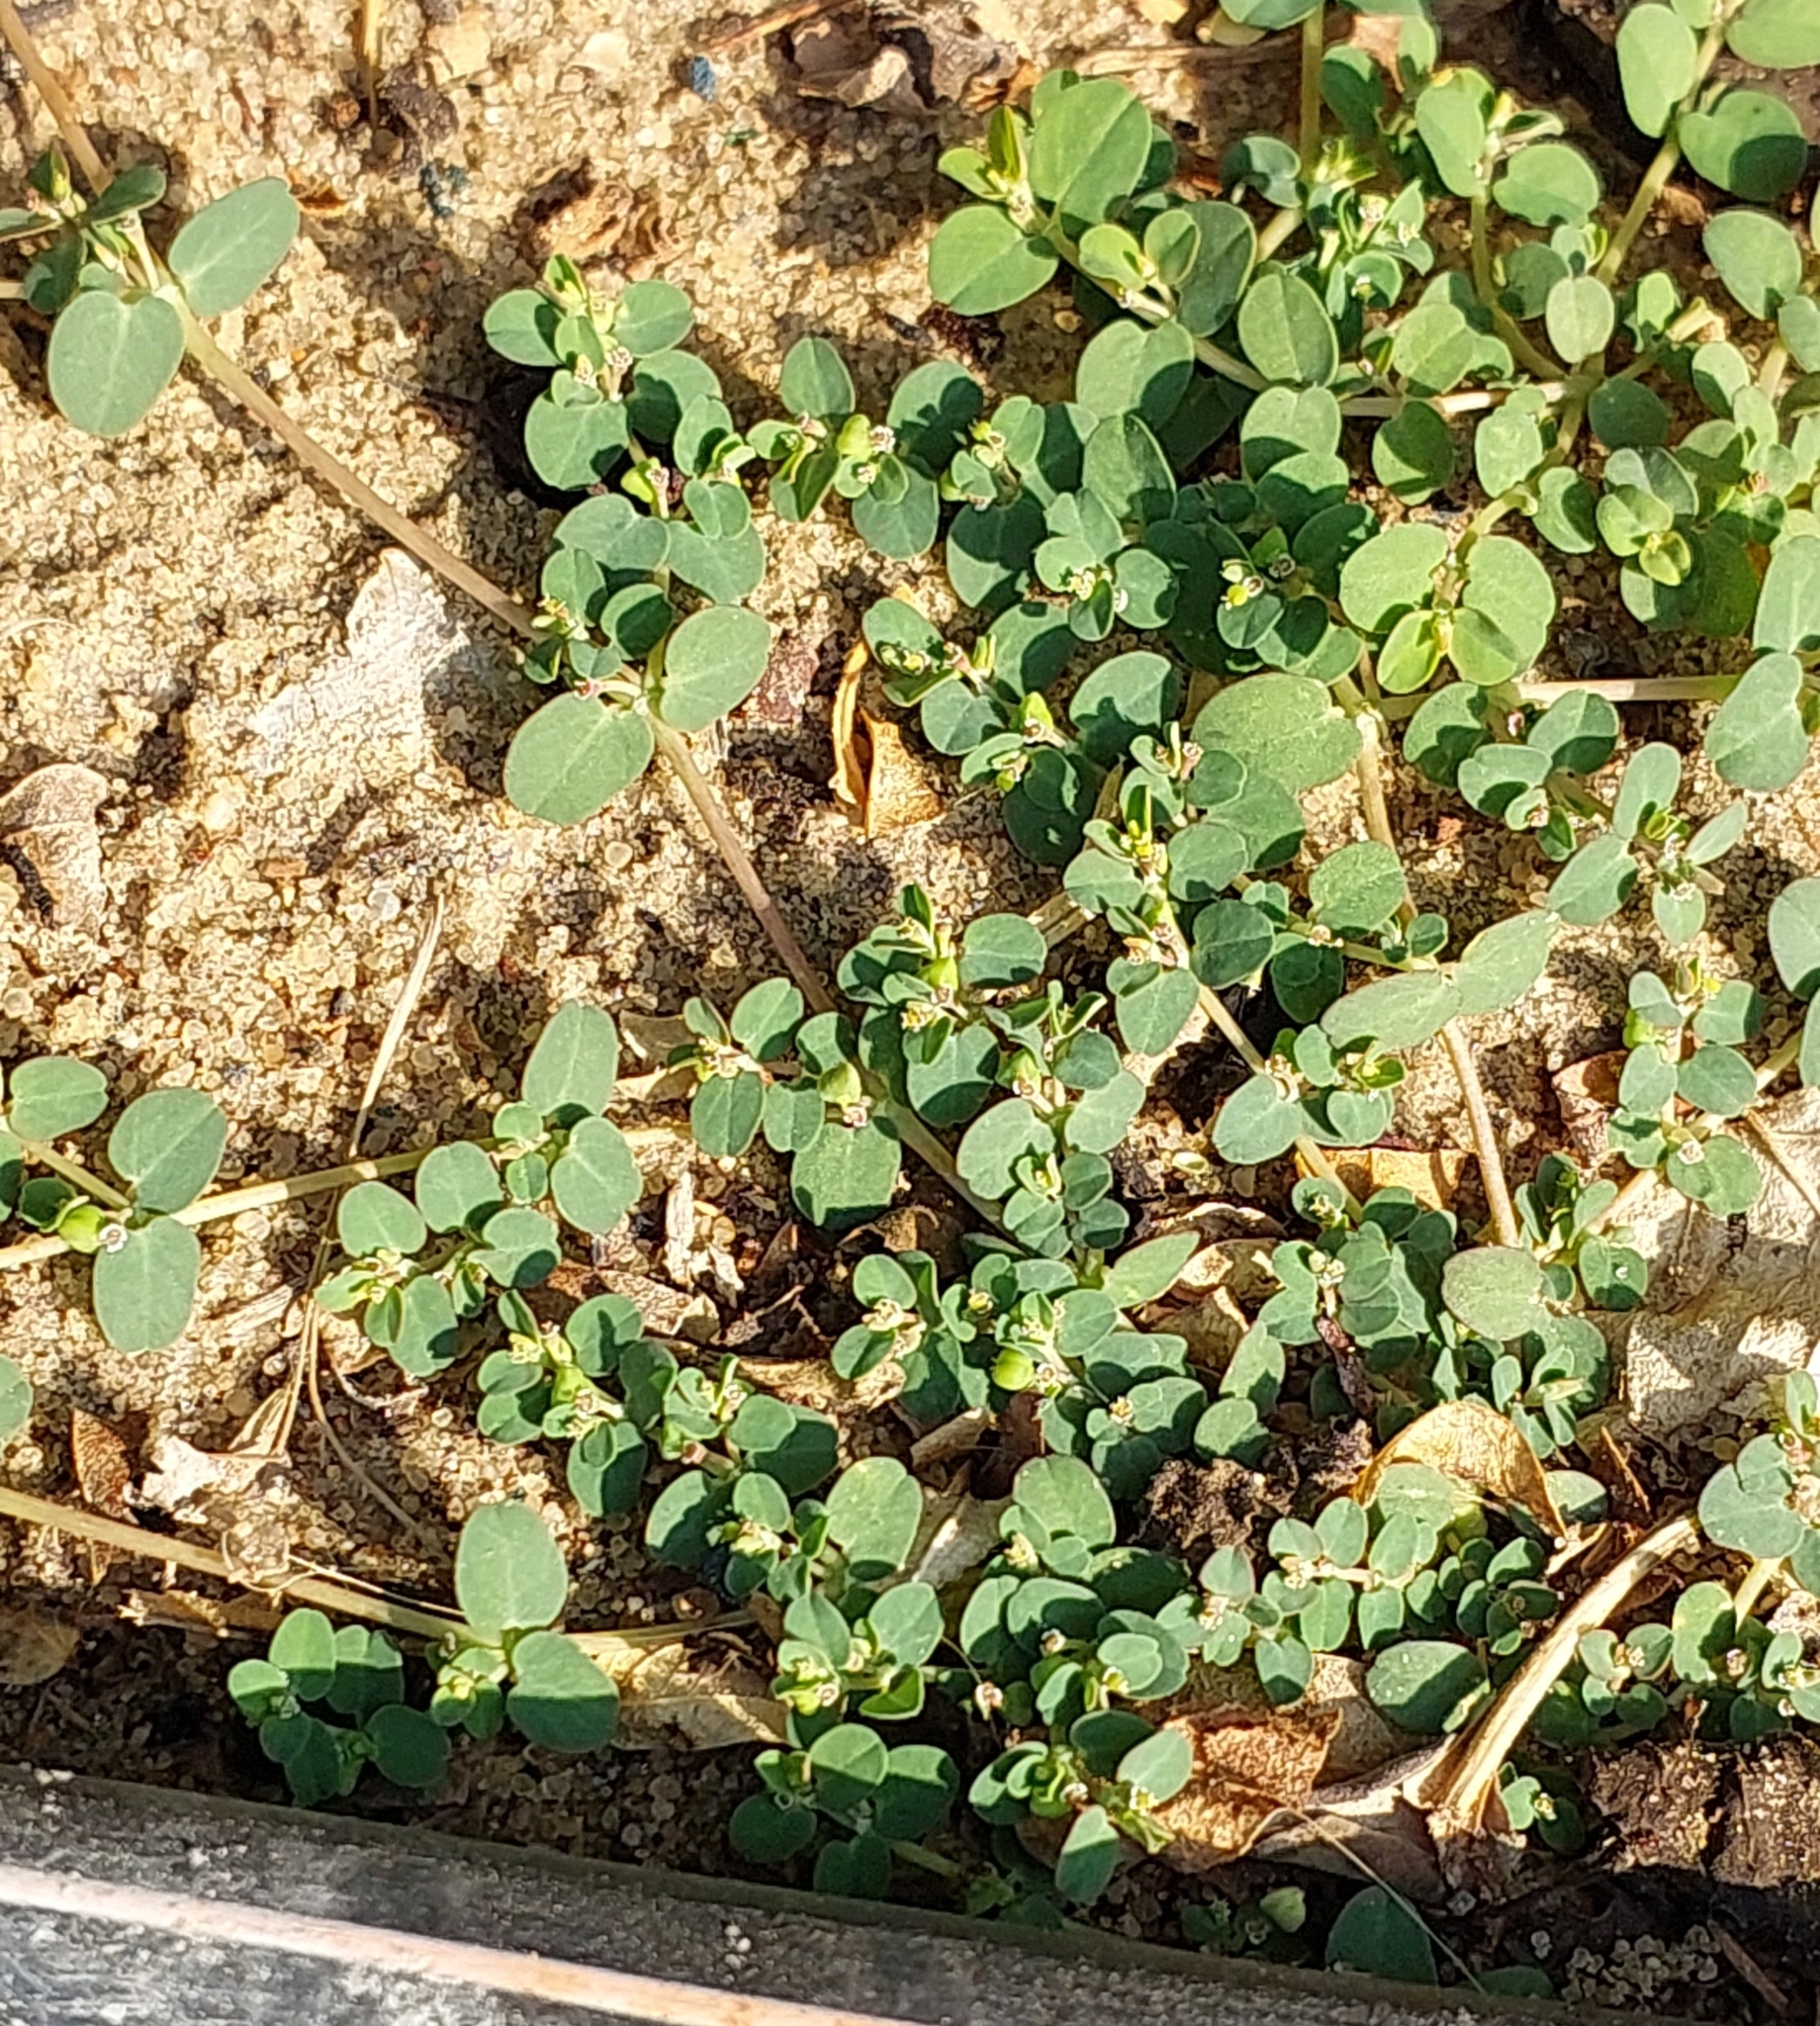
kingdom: Plantae
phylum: Tracheophyta
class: Magnoliopsida
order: Malpighiales
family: Euphorbiaceae
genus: Euphorbia
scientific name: Euphorbia serpens
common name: Matted sandmat
